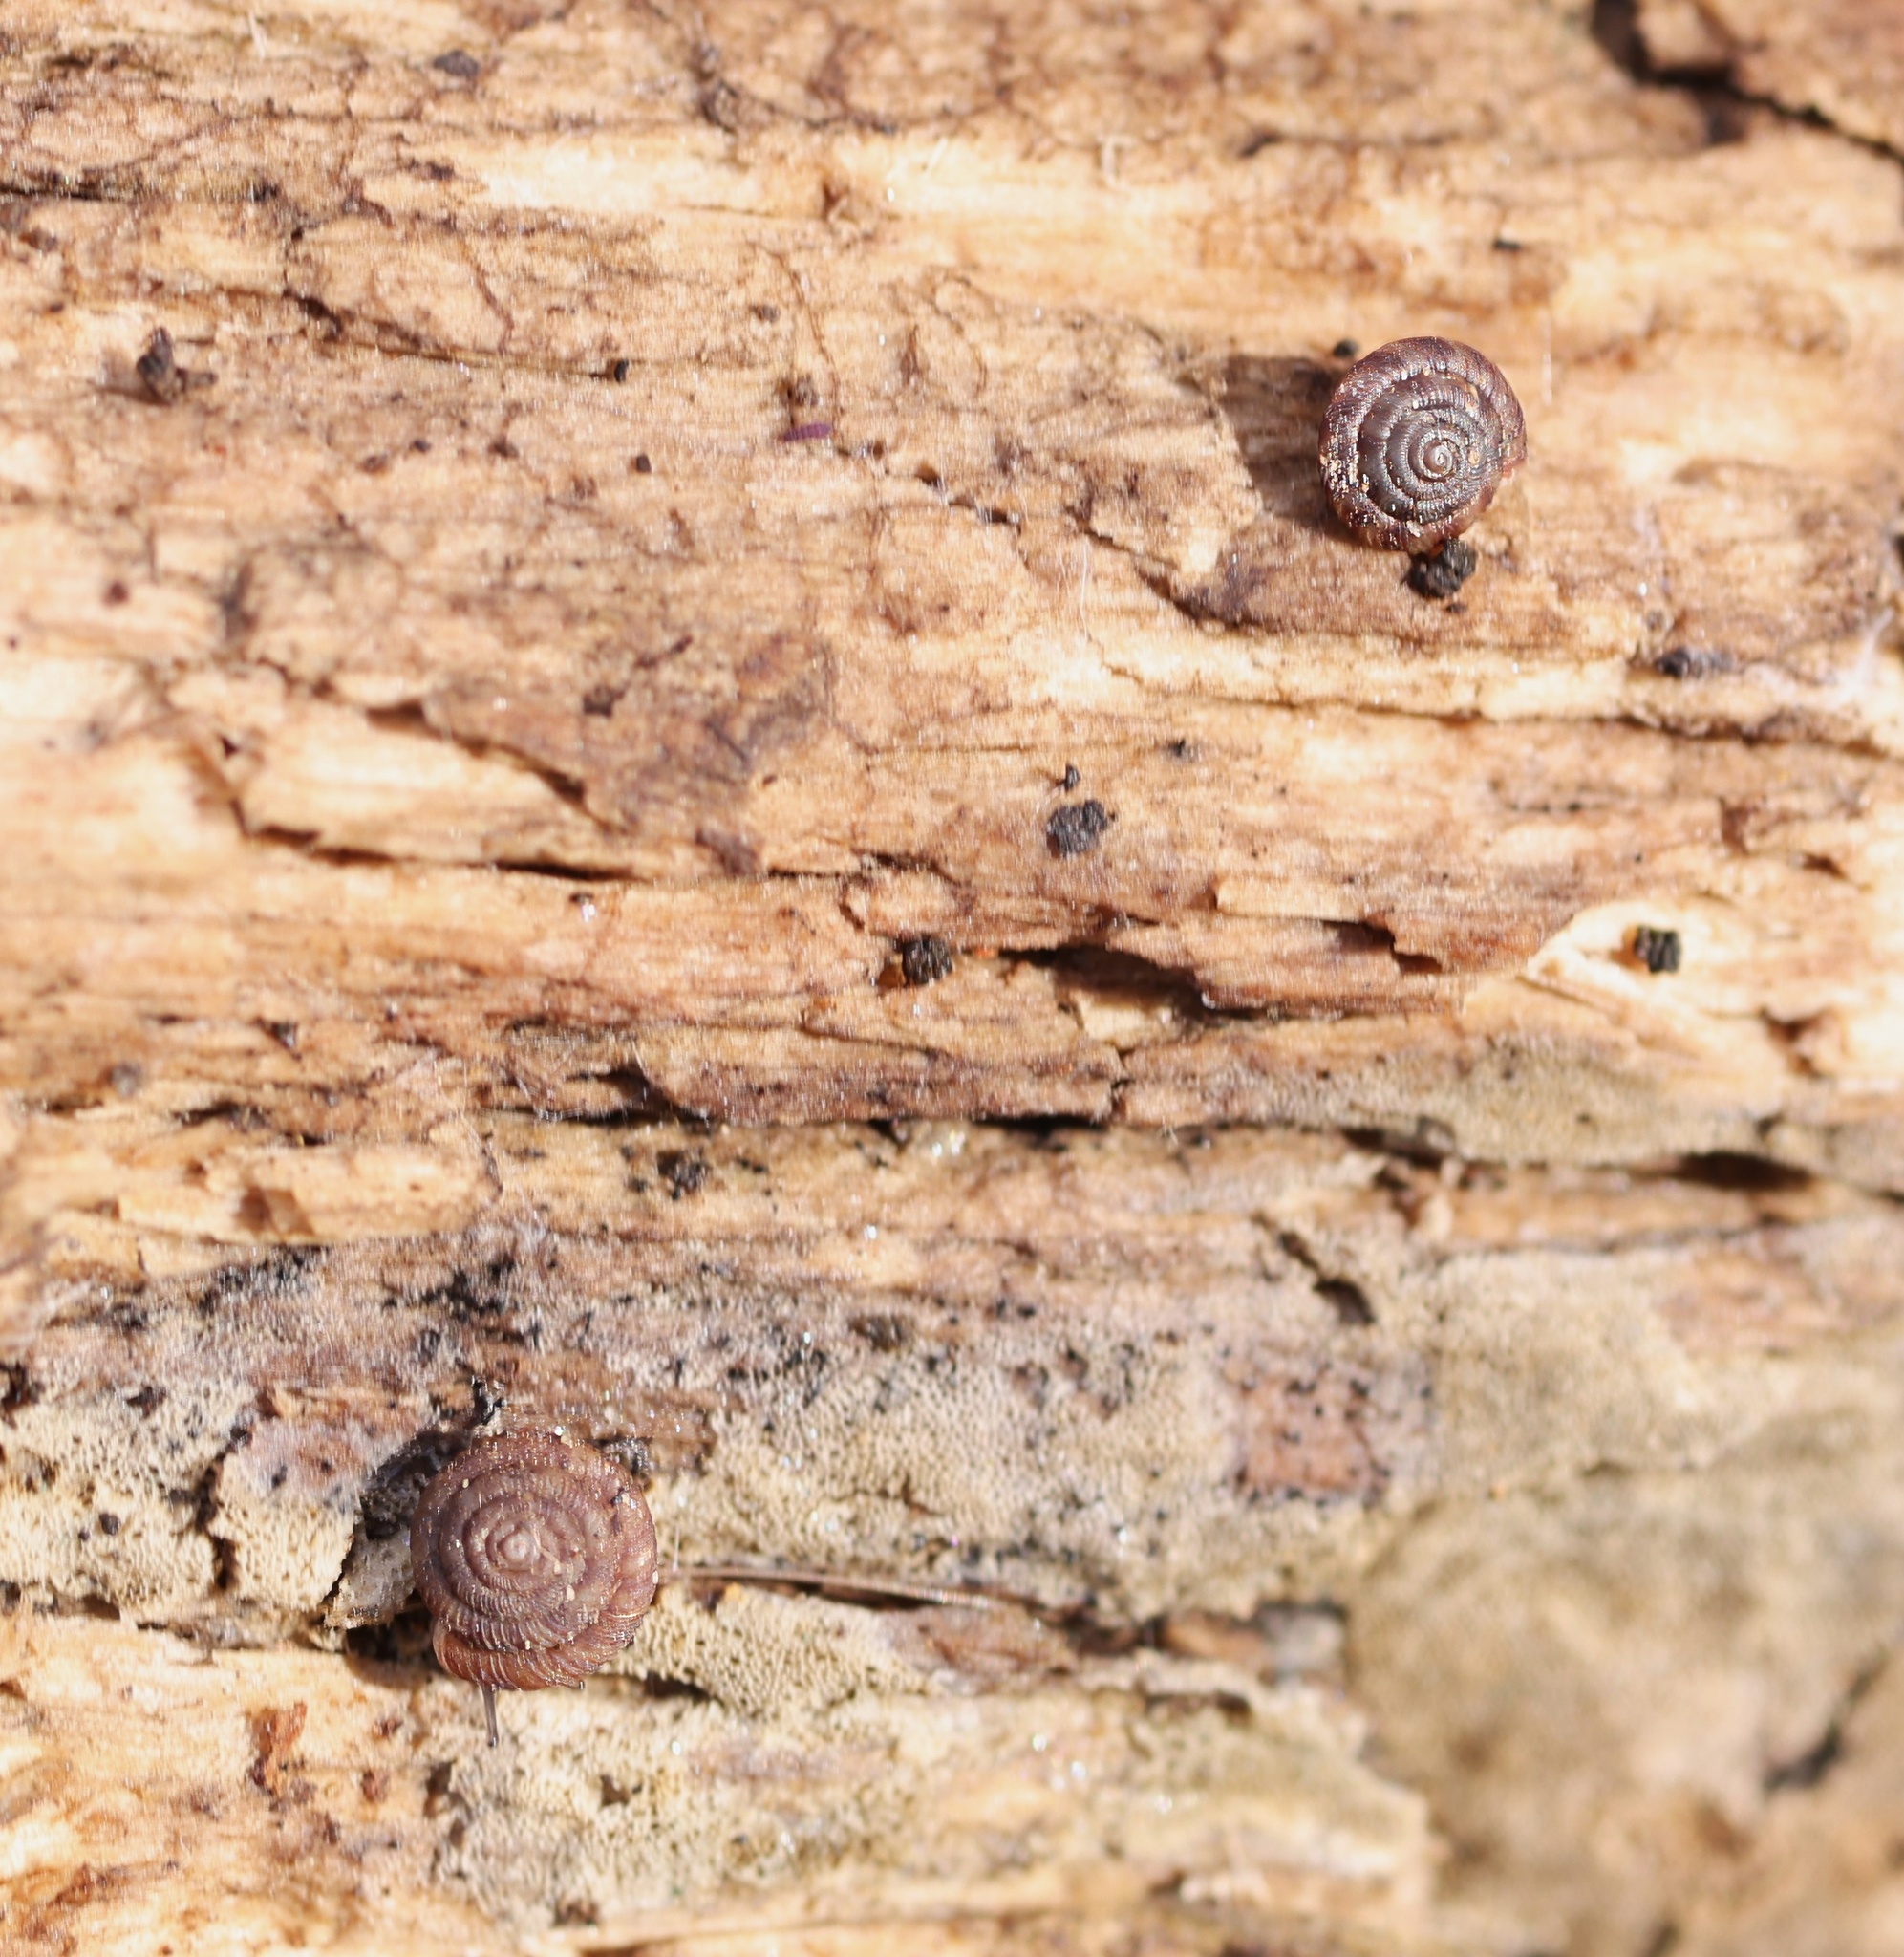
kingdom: Animalia
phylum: Mollusca
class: Gastropoda
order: Stylommatophora
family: Discidae
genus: Discus
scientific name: Discus rotundatus
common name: Rounded snail
